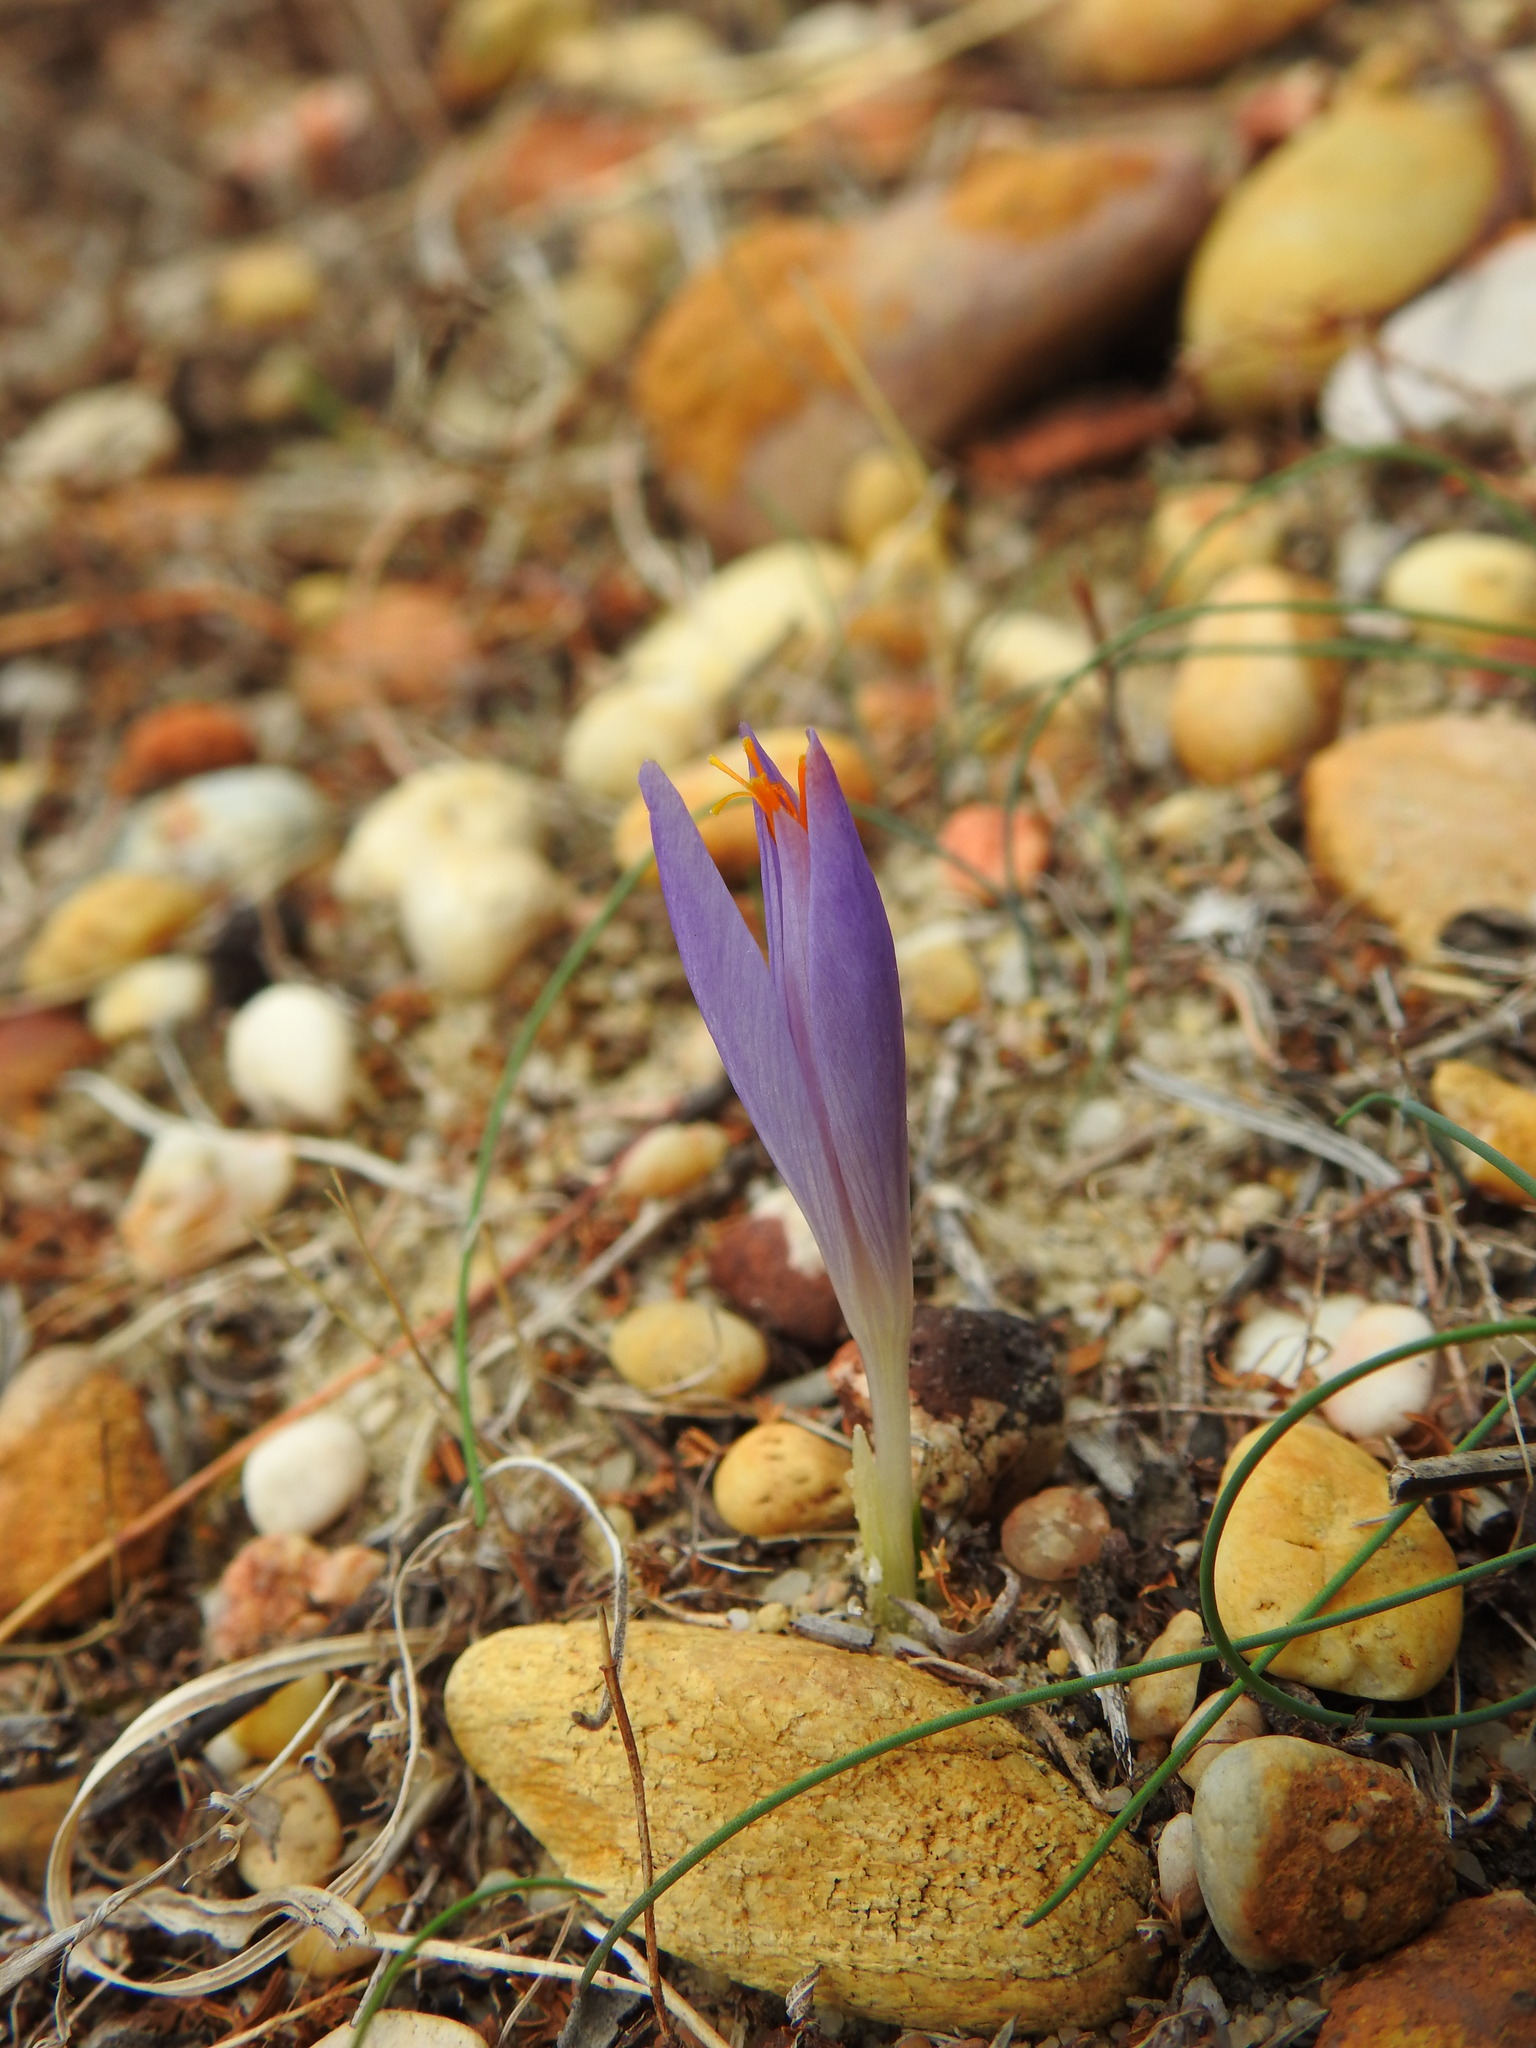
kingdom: Plantae
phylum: Tracheophyta
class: Liliopsida
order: Asparagales
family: Iridaceae
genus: Crocus
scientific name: Crocus serotinus
